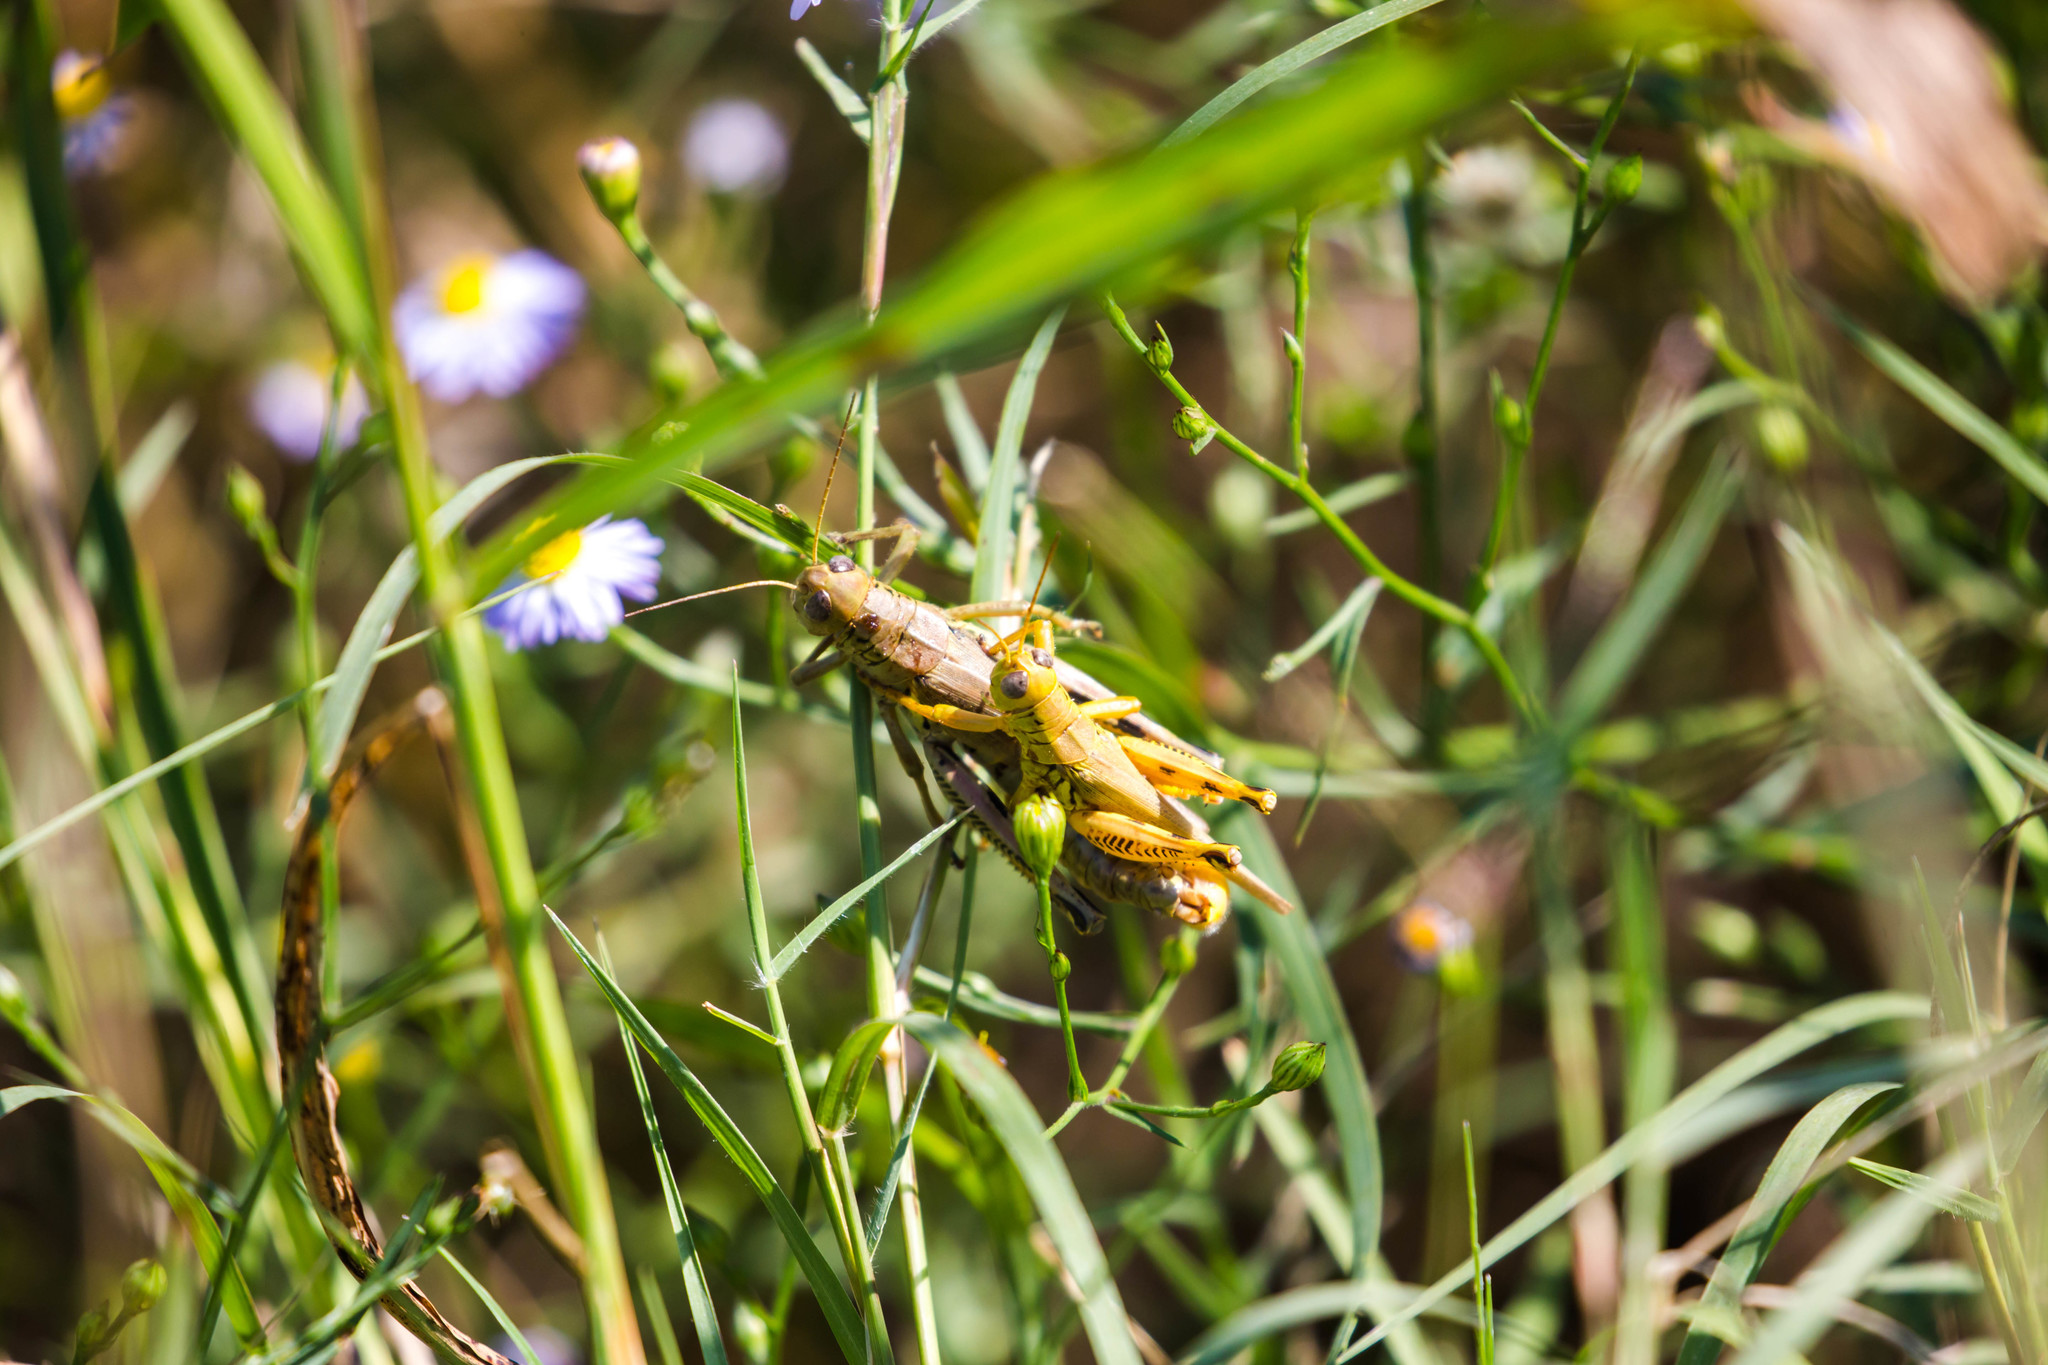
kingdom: Animalia
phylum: Arthropoda
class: Insecta
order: Orthoptera
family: Acrididae
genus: Melanoplus
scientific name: Melanoplus differentialis
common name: Differential grasshopper
